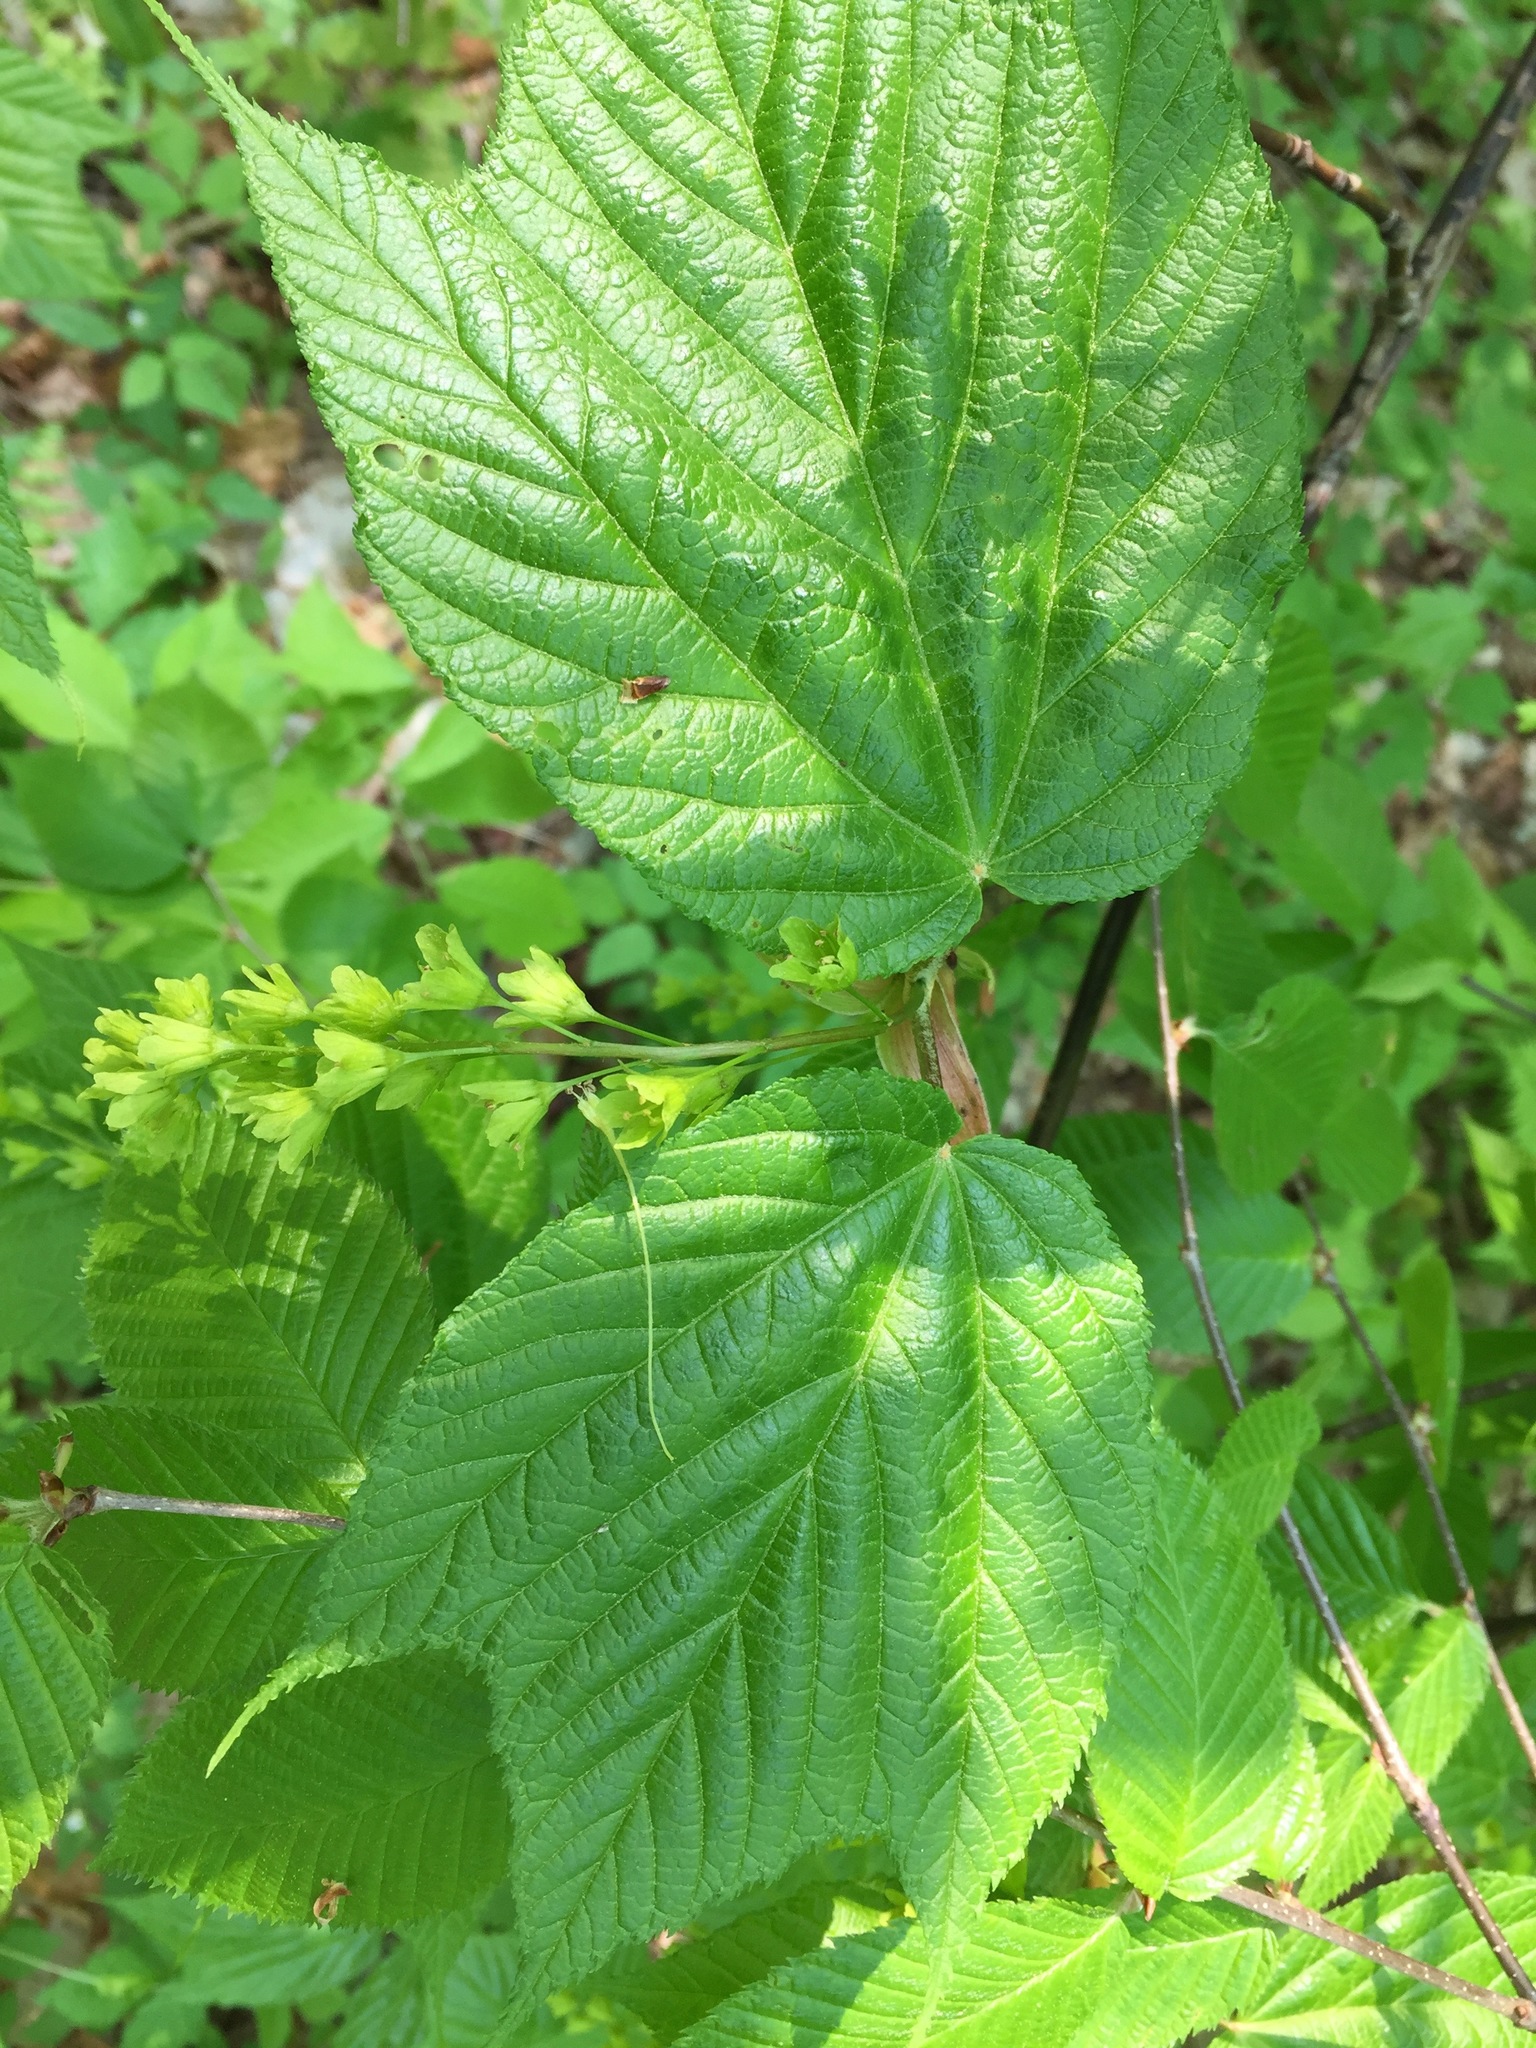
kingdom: Plantae
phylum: Tracheophyta
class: Magnoliopsida
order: Sapindales
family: Sapindaceae
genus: Acer
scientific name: Acer pensylvanicum
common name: Moosewood
